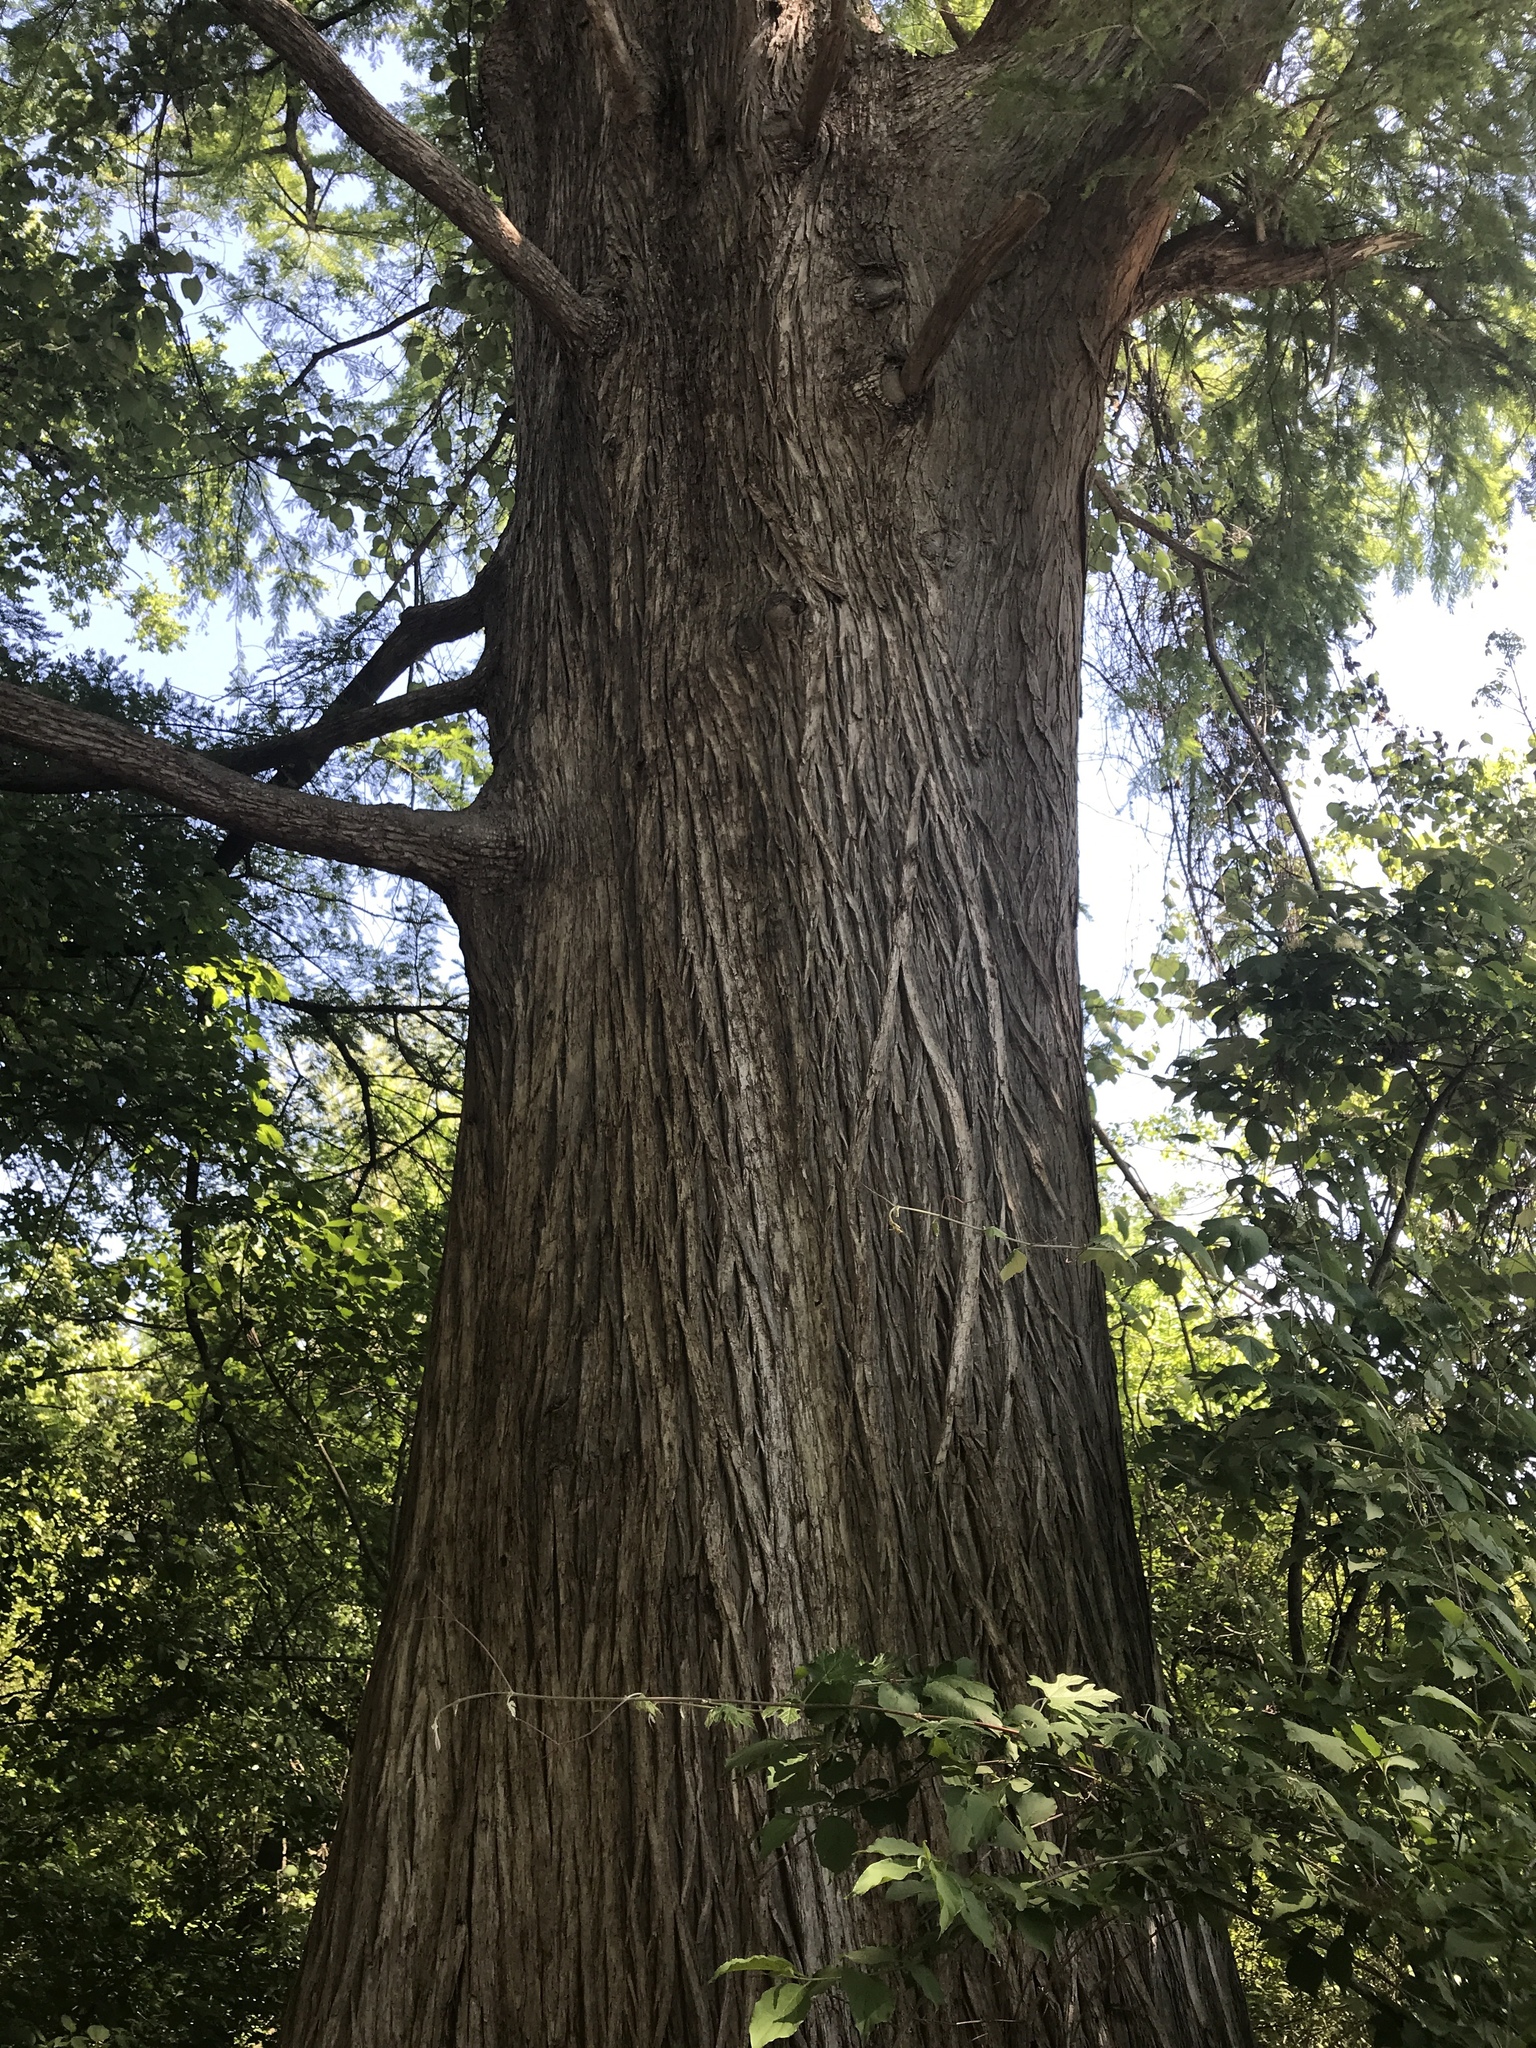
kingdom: Plantae
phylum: Tracheophyta
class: Pinopsida
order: Pinales
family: Cupressaceae
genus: Taxodium
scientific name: Taxodium distichum
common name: Bald cypress
